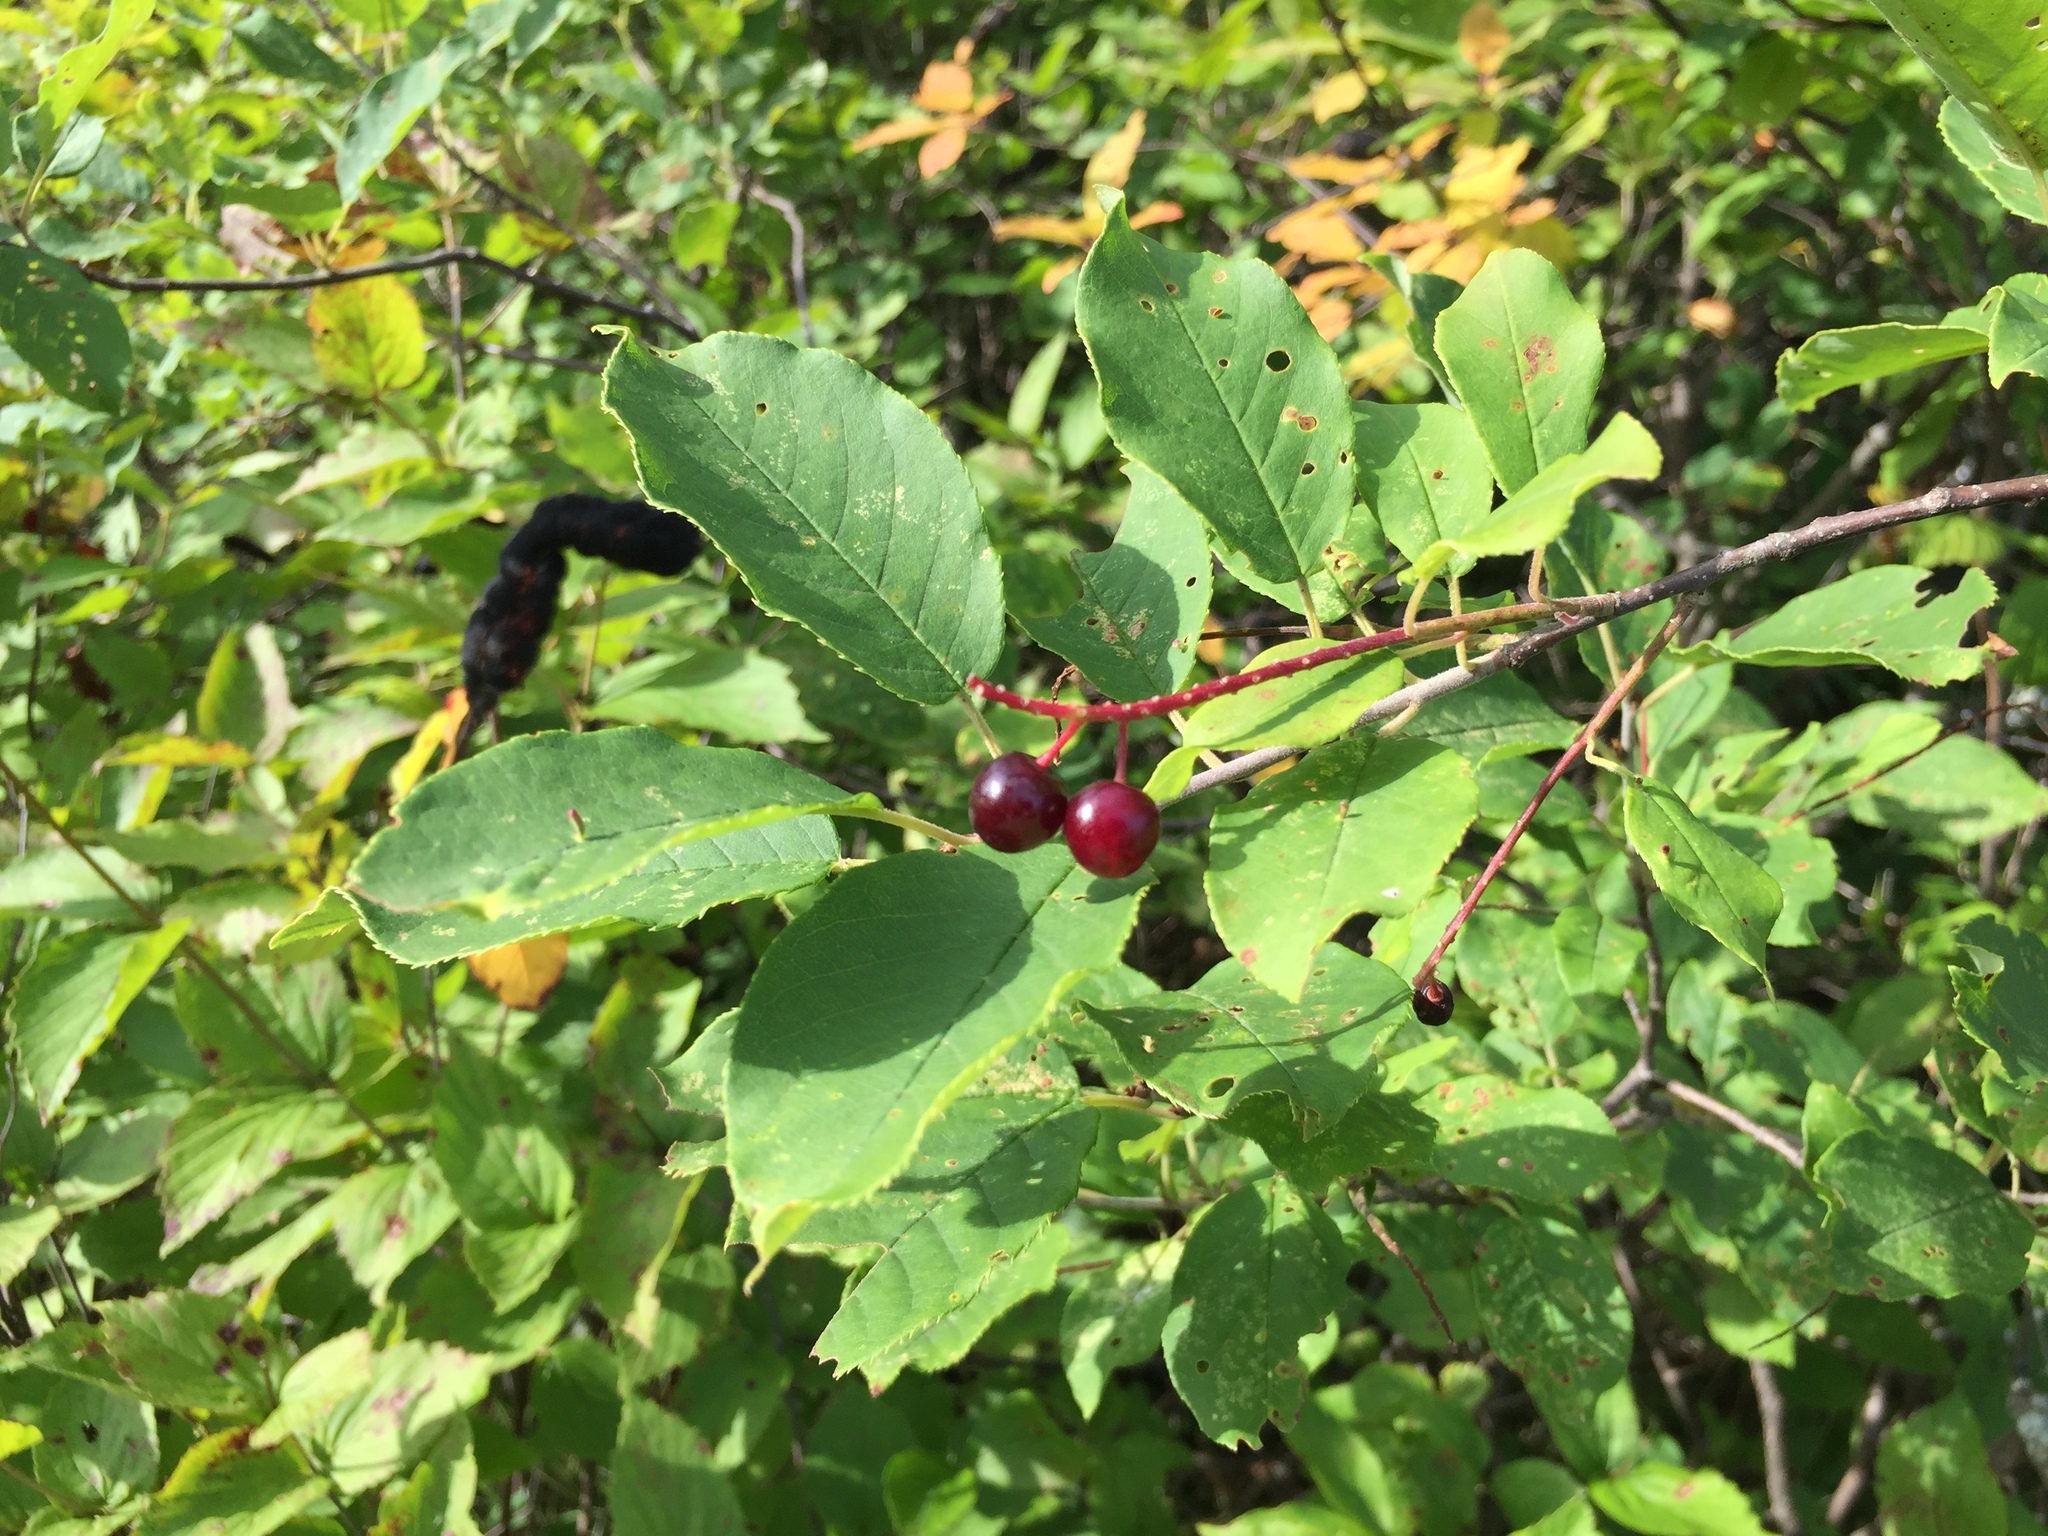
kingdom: Plantae
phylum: Tracheophyta
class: Magnoliopsida
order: Rosales
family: Rosaceae
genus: Prunus
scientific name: Prunus virginiana
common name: Chokecherry
